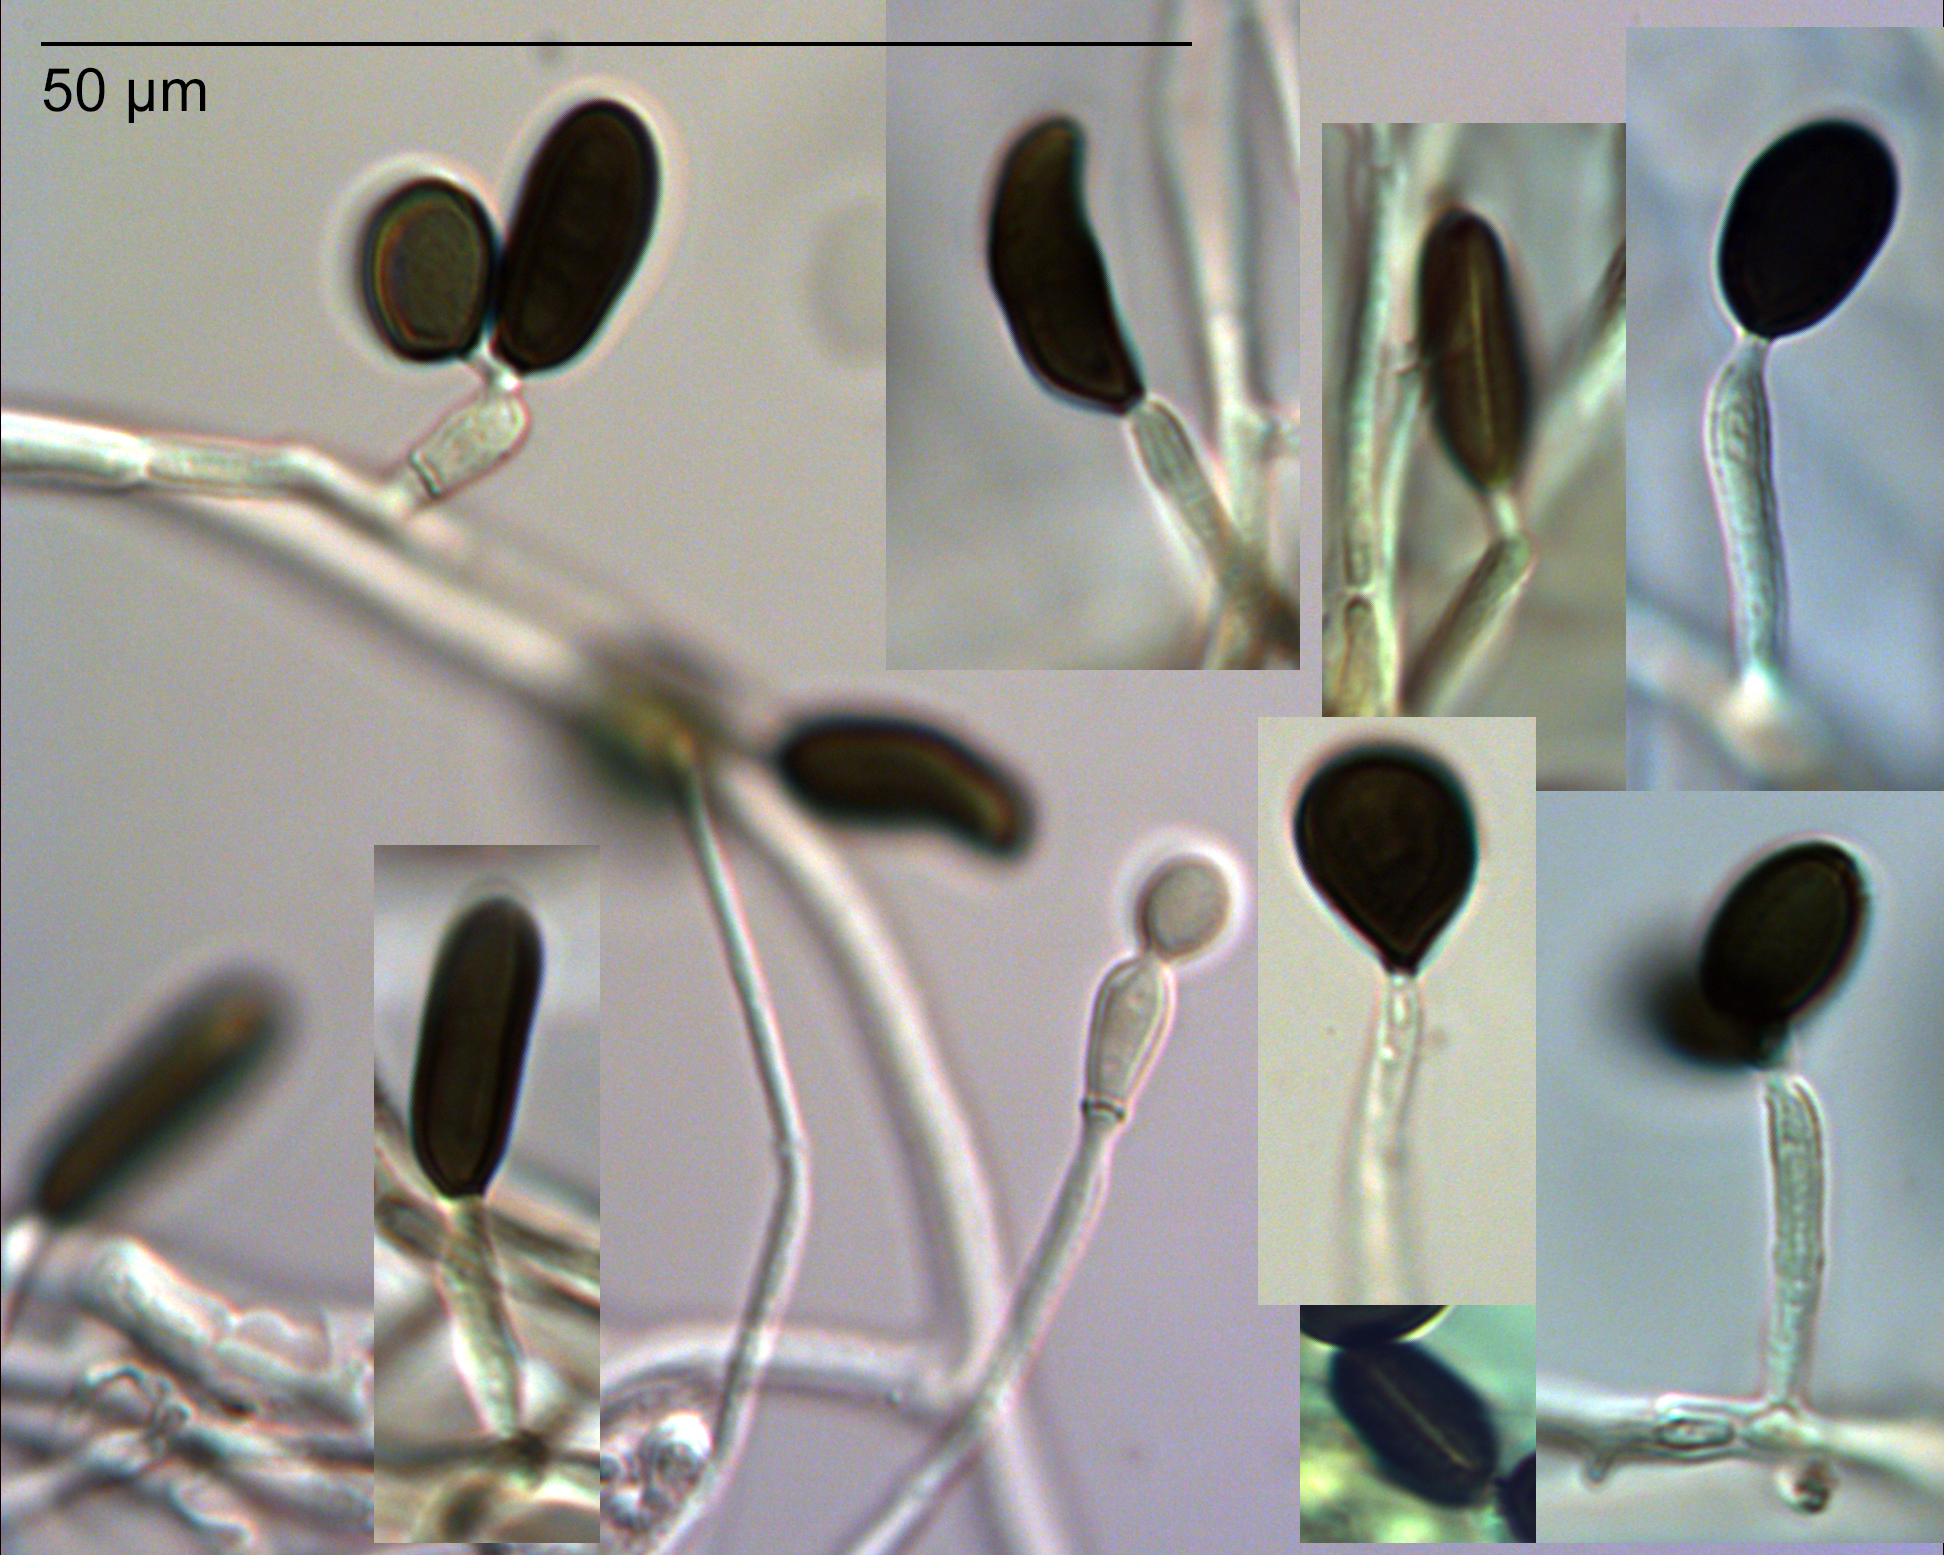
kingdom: Fungi
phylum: Ascomycota
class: Sordariomycetes
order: Xylariales
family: Apiosporaceae
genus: Apiospora
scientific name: Apiospora sphaerosperma
